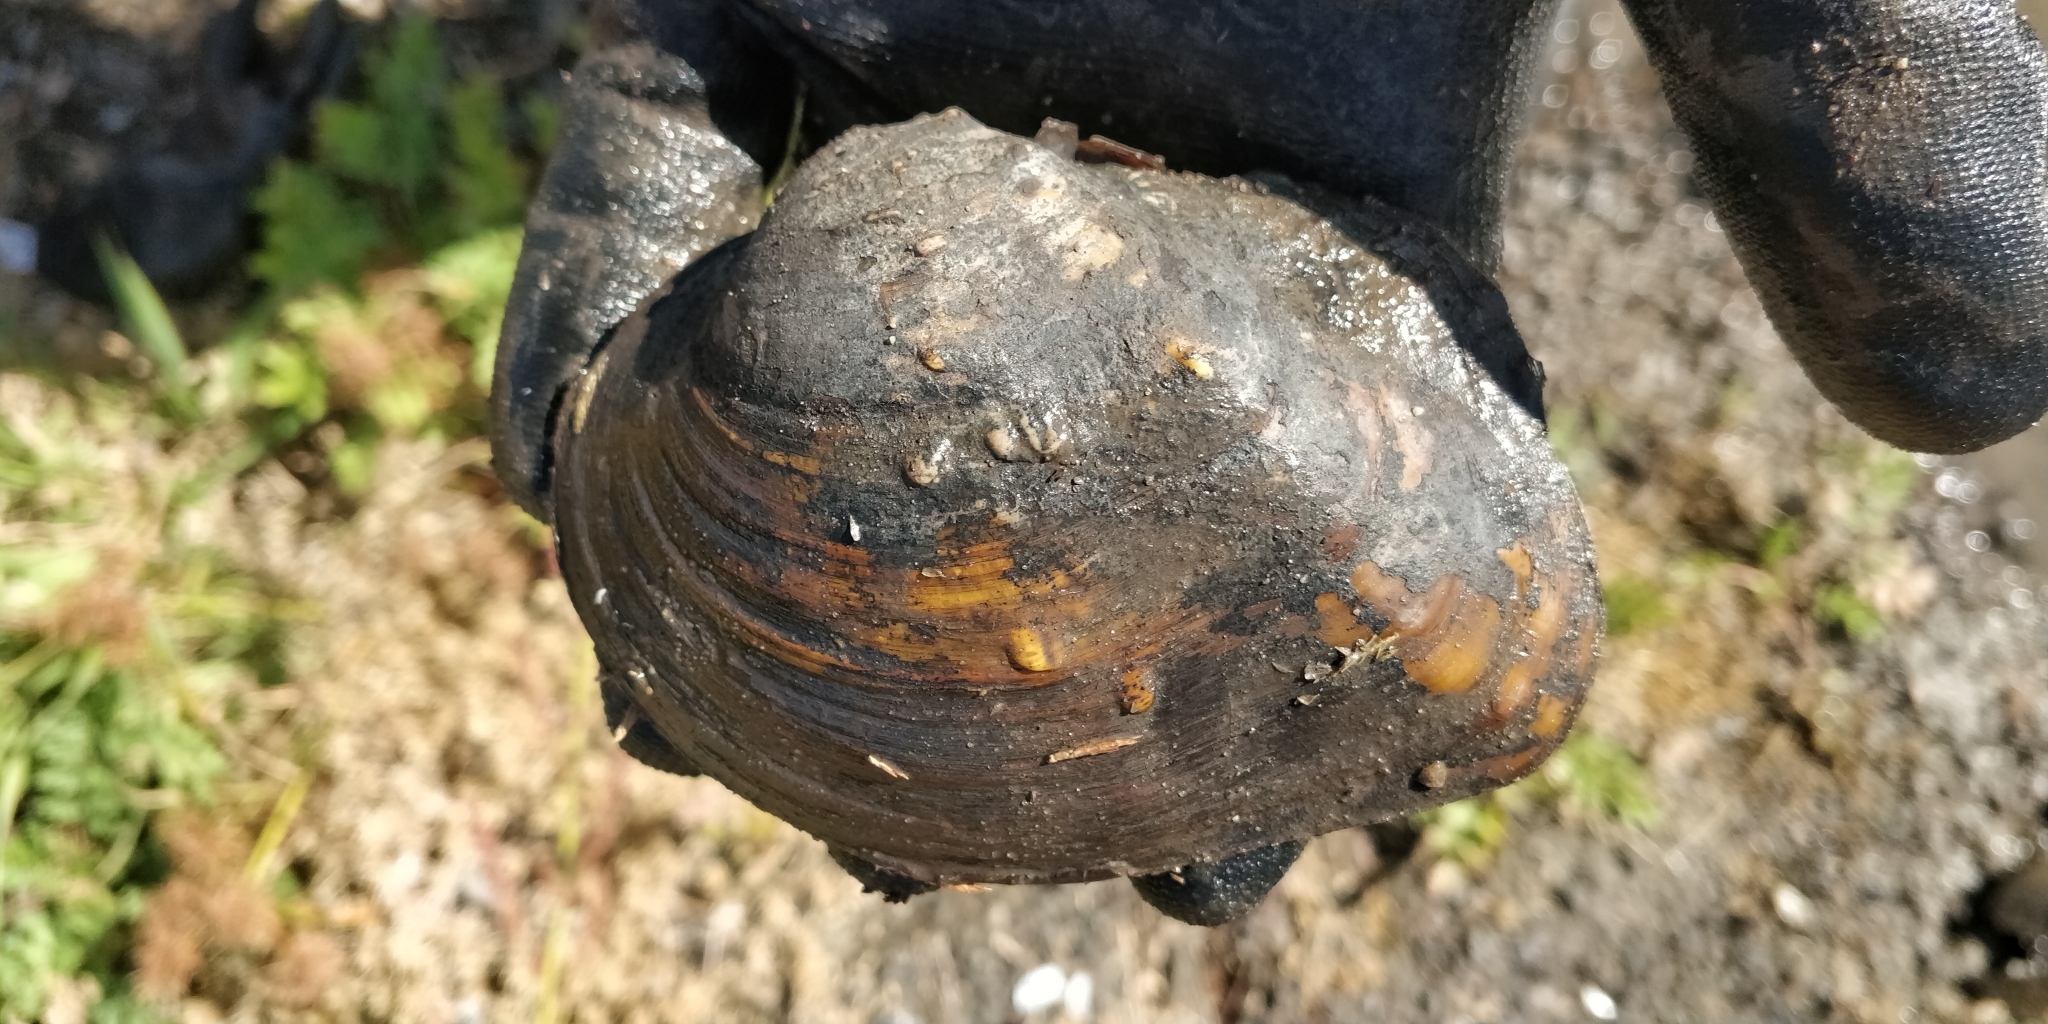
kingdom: Animalia
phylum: Mollusca
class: Bivalvia
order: Unionida
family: Unionidae
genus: Quadrula
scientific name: Quadrula quadrula
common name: Mapleleaf
